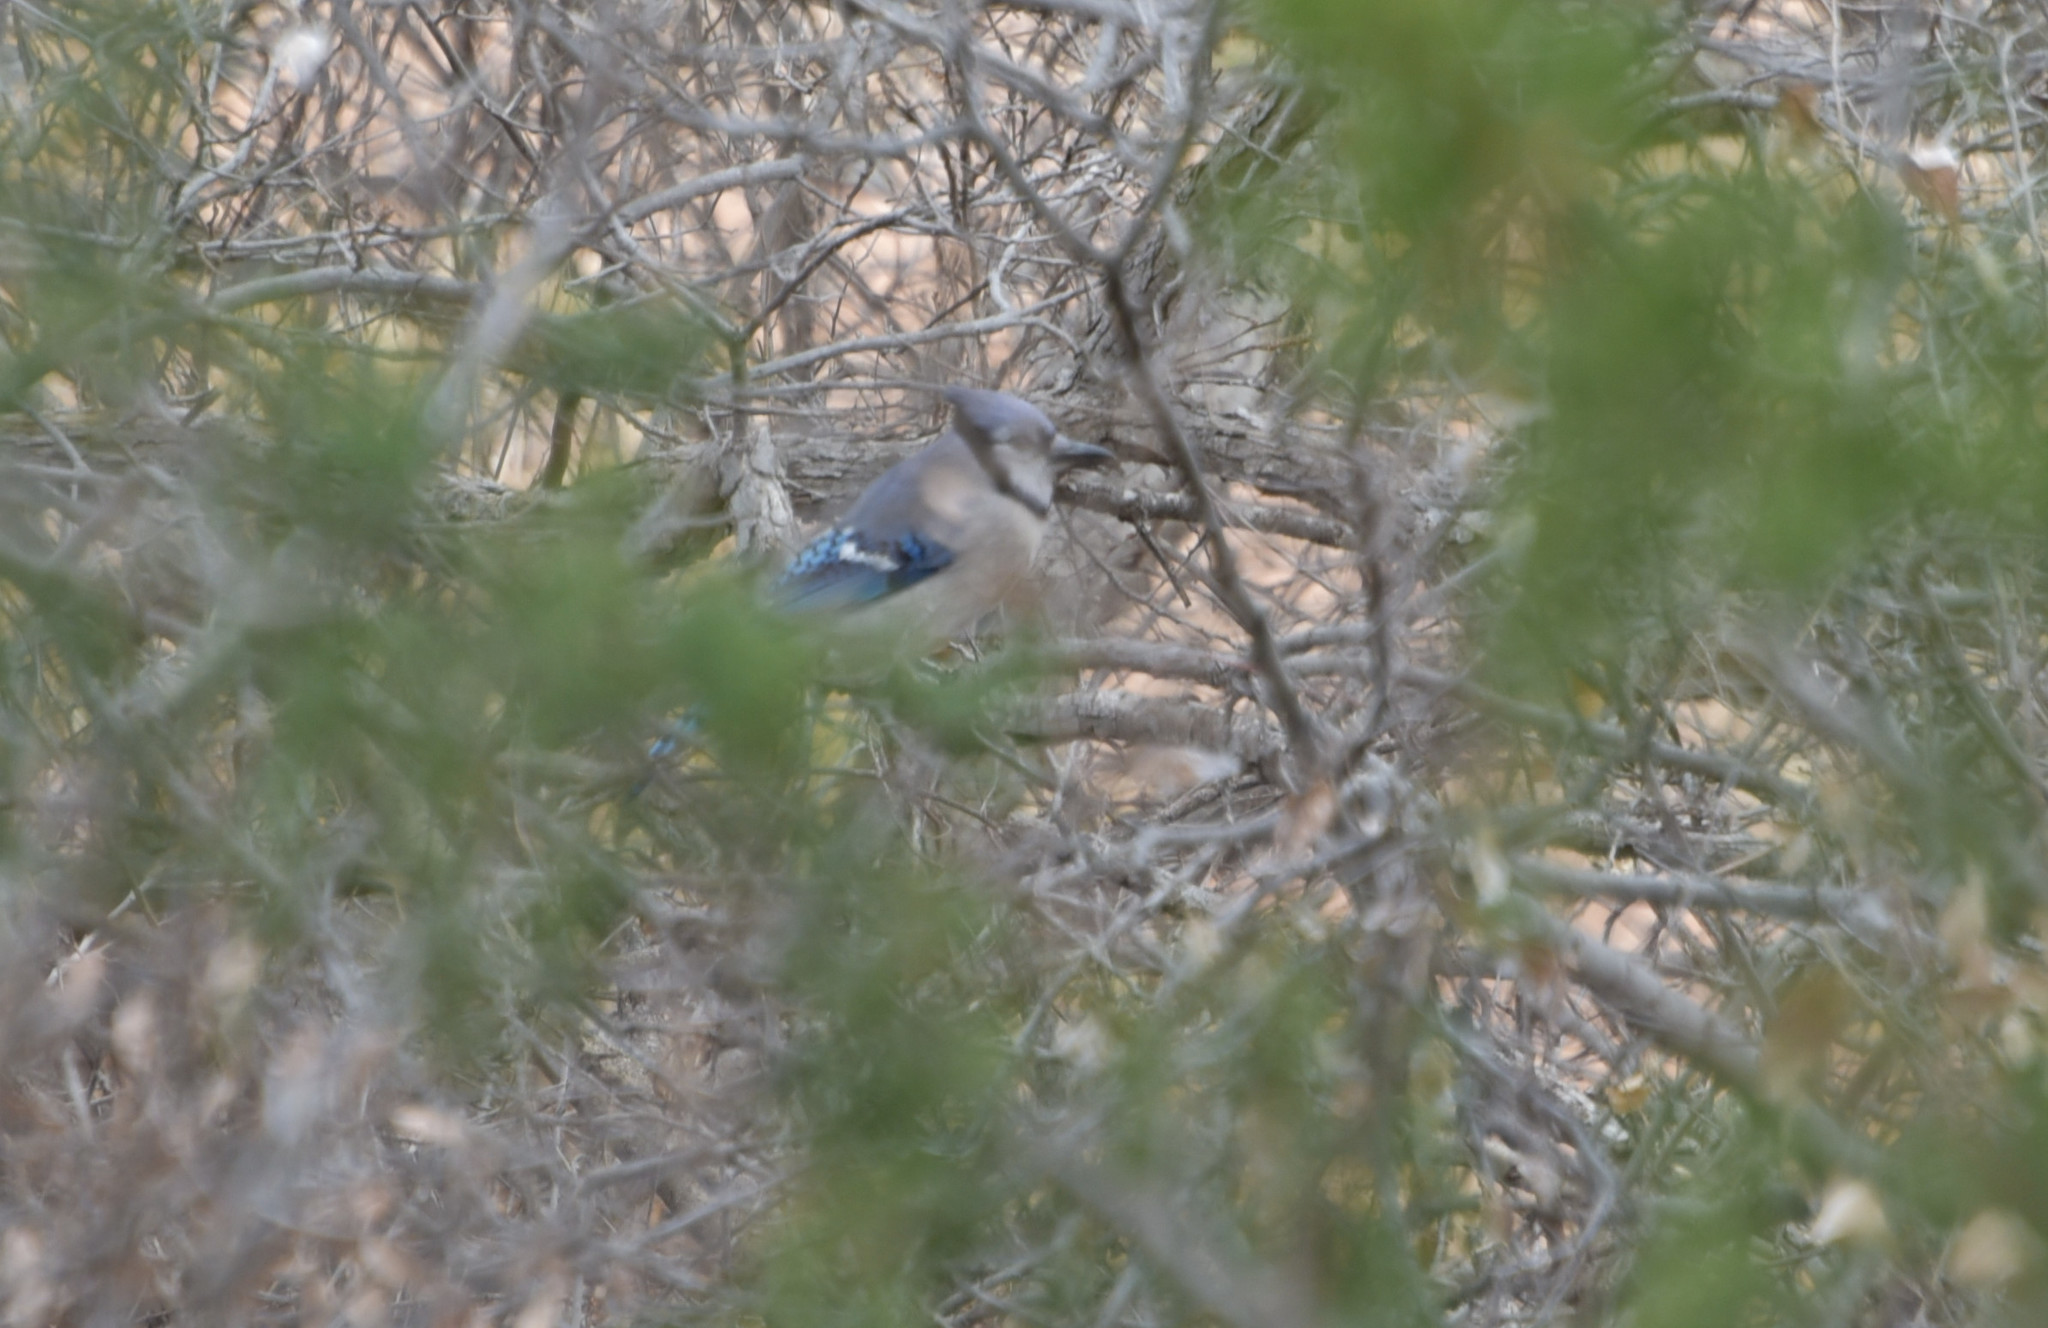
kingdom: Animalia
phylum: Chordata
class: Aves
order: Passeriformes
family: Corvidae
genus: Cyanocitta
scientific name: Cyanocitta cristata
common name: Blue jay
